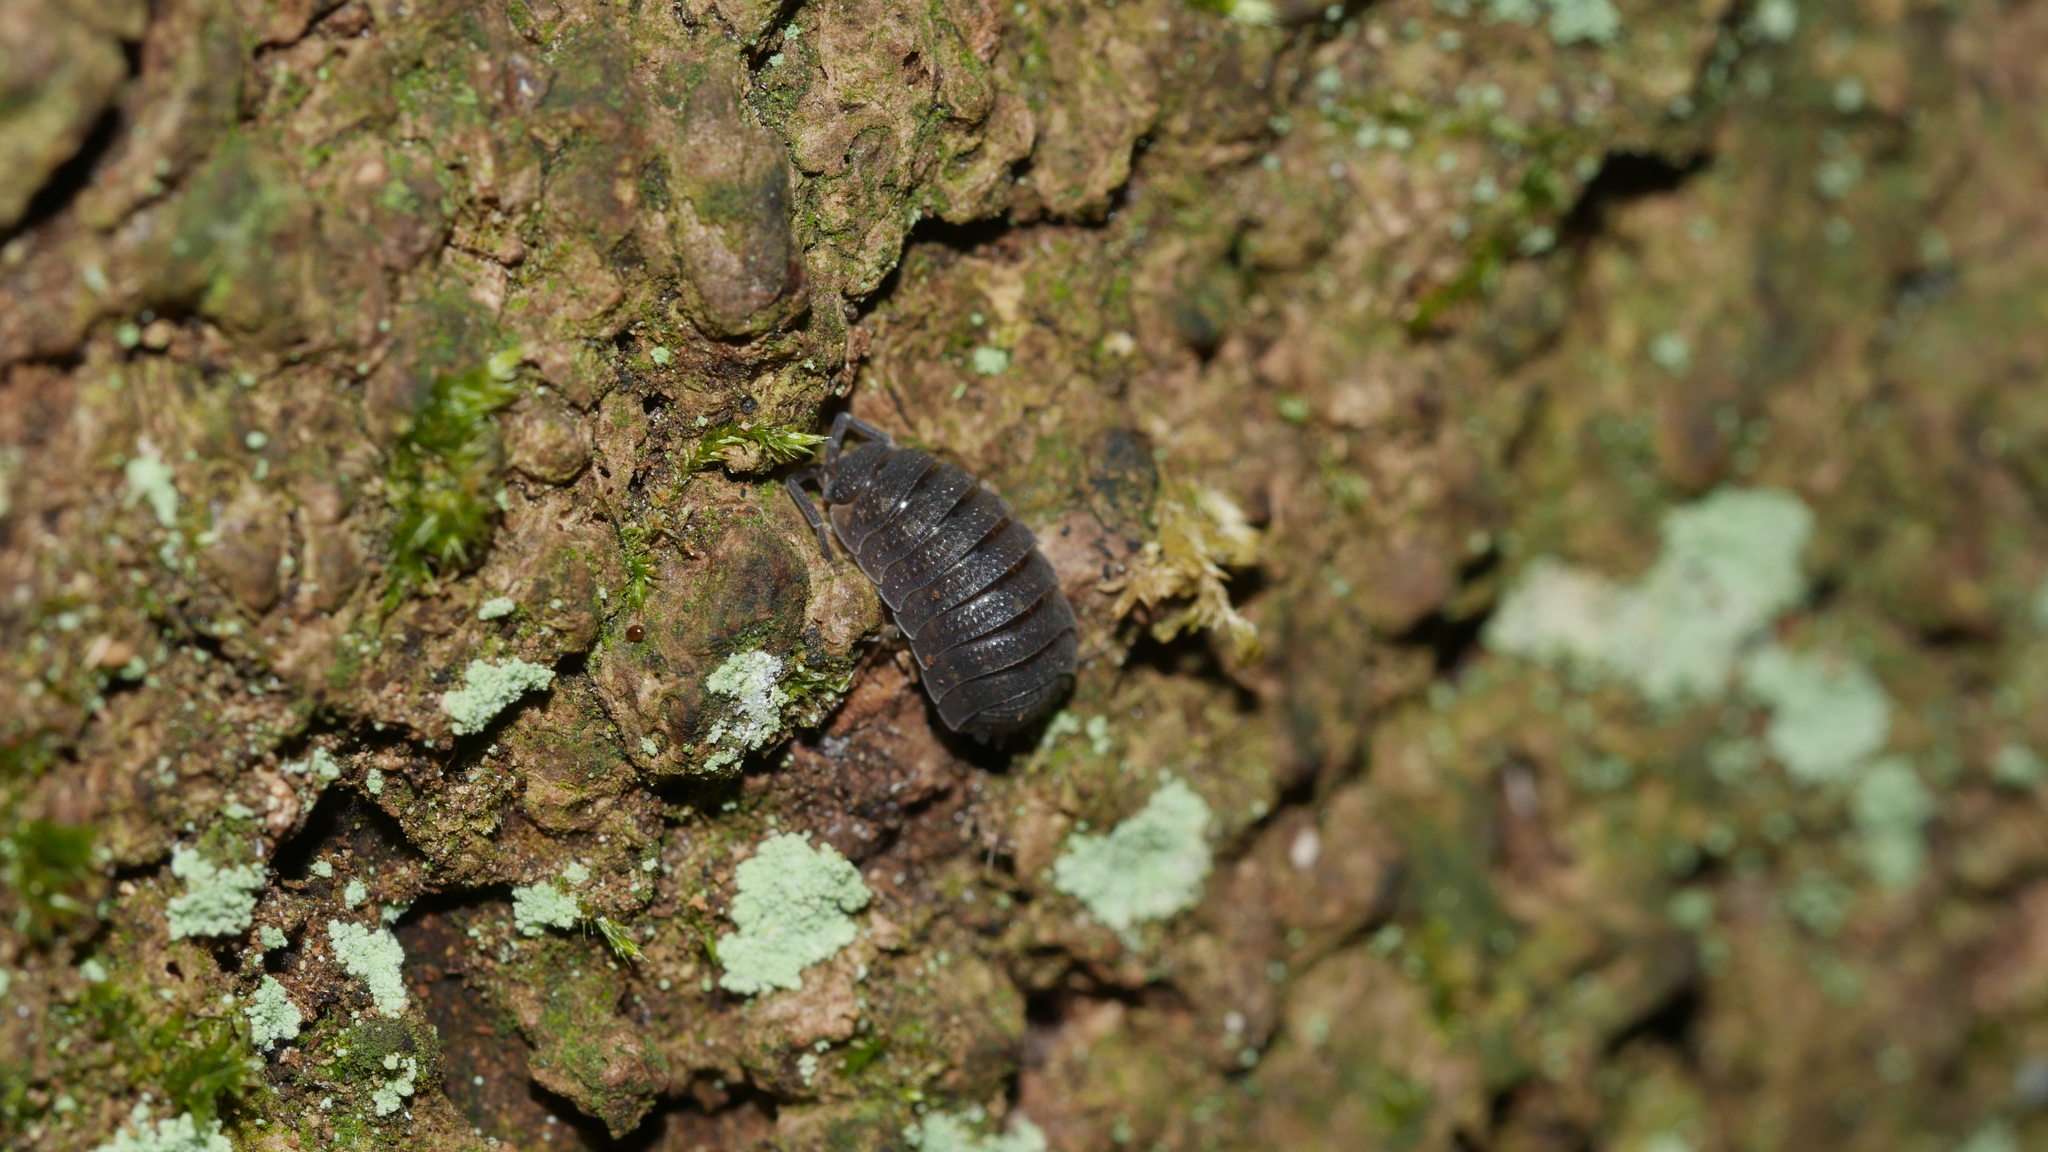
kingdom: Animalia
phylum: Arthropoda
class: Malacostraca
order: Isopoda
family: Porcellionidae
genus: Porcellio
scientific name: Porcellio scaber
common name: Common rough woodlouse
